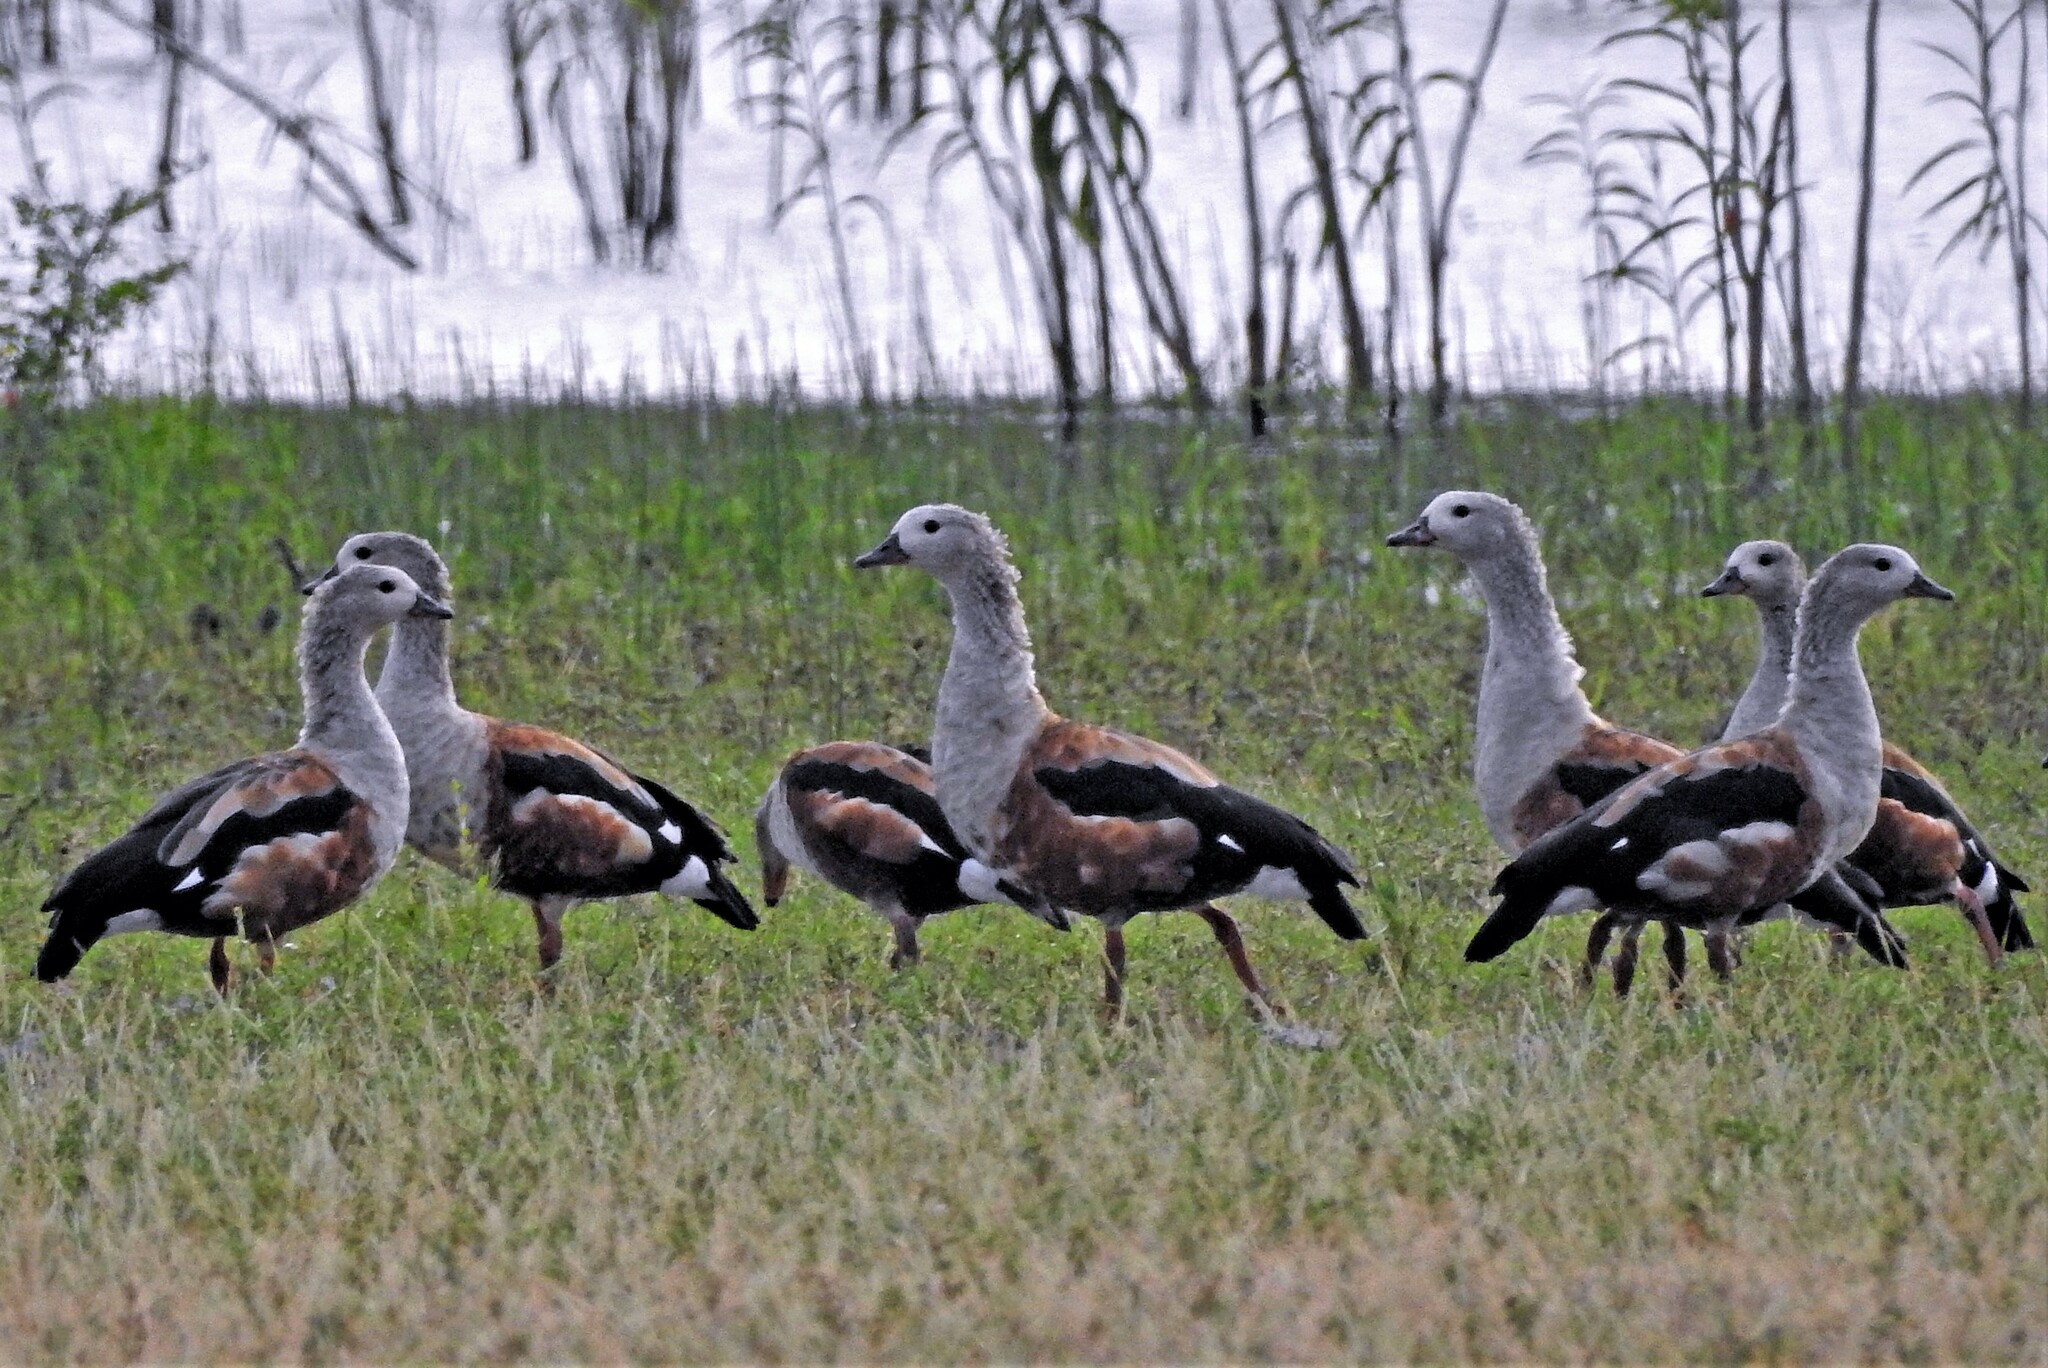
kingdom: Animalia
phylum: Chordata
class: Aves
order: Anseriformes
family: Anatidae
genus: Oressochen
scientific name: Oressochen jubatus
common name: Orinoco goose
